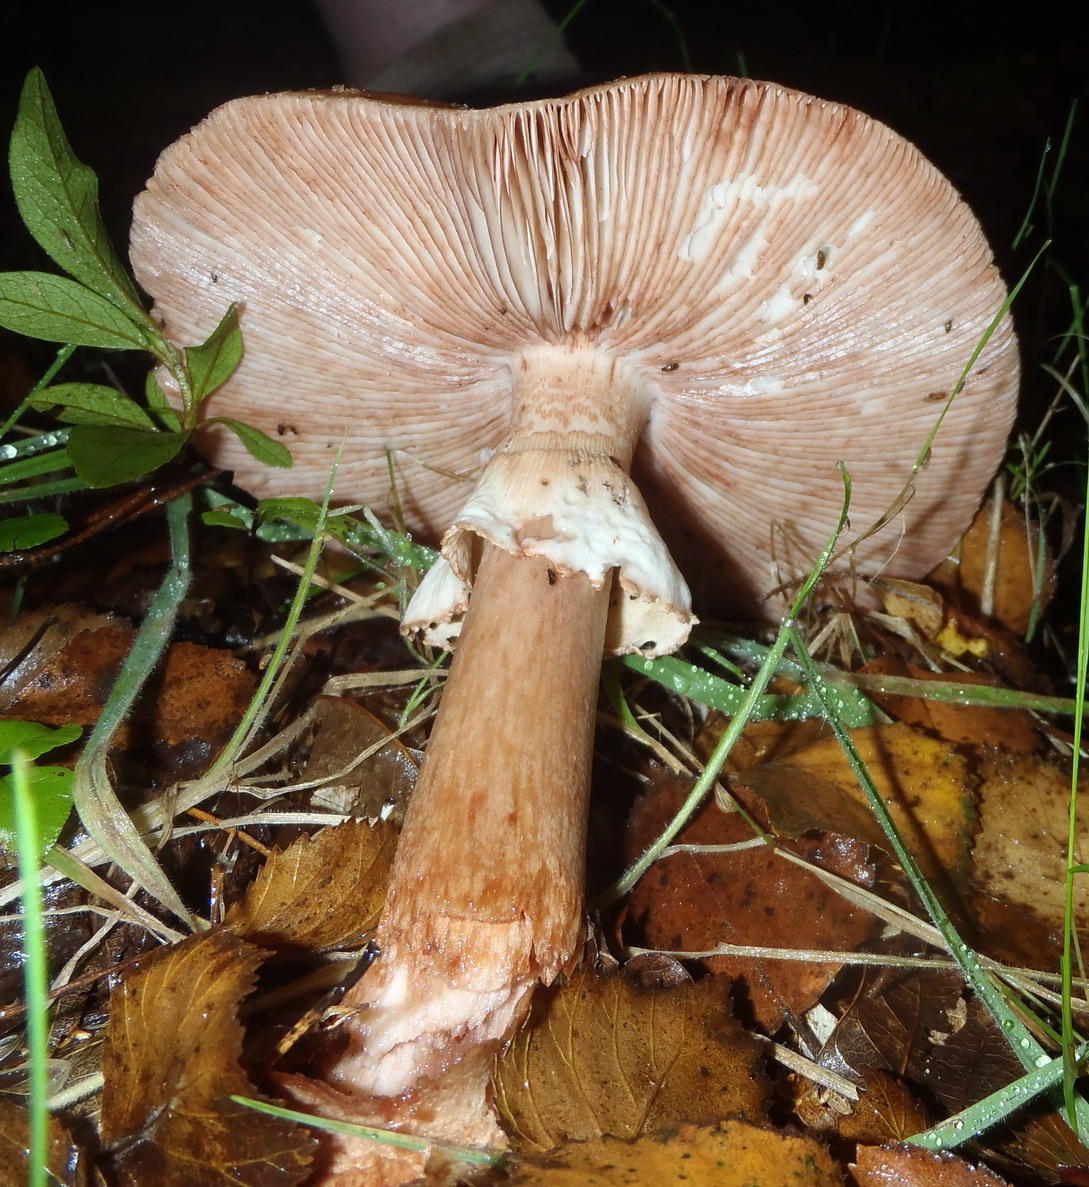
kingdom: Fungi
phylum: Basidiomycota
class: Agaricomycetes
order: Agaricales
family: Amanitaceae
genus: Amanita
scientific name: Amanita rubescens
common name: Blusher
